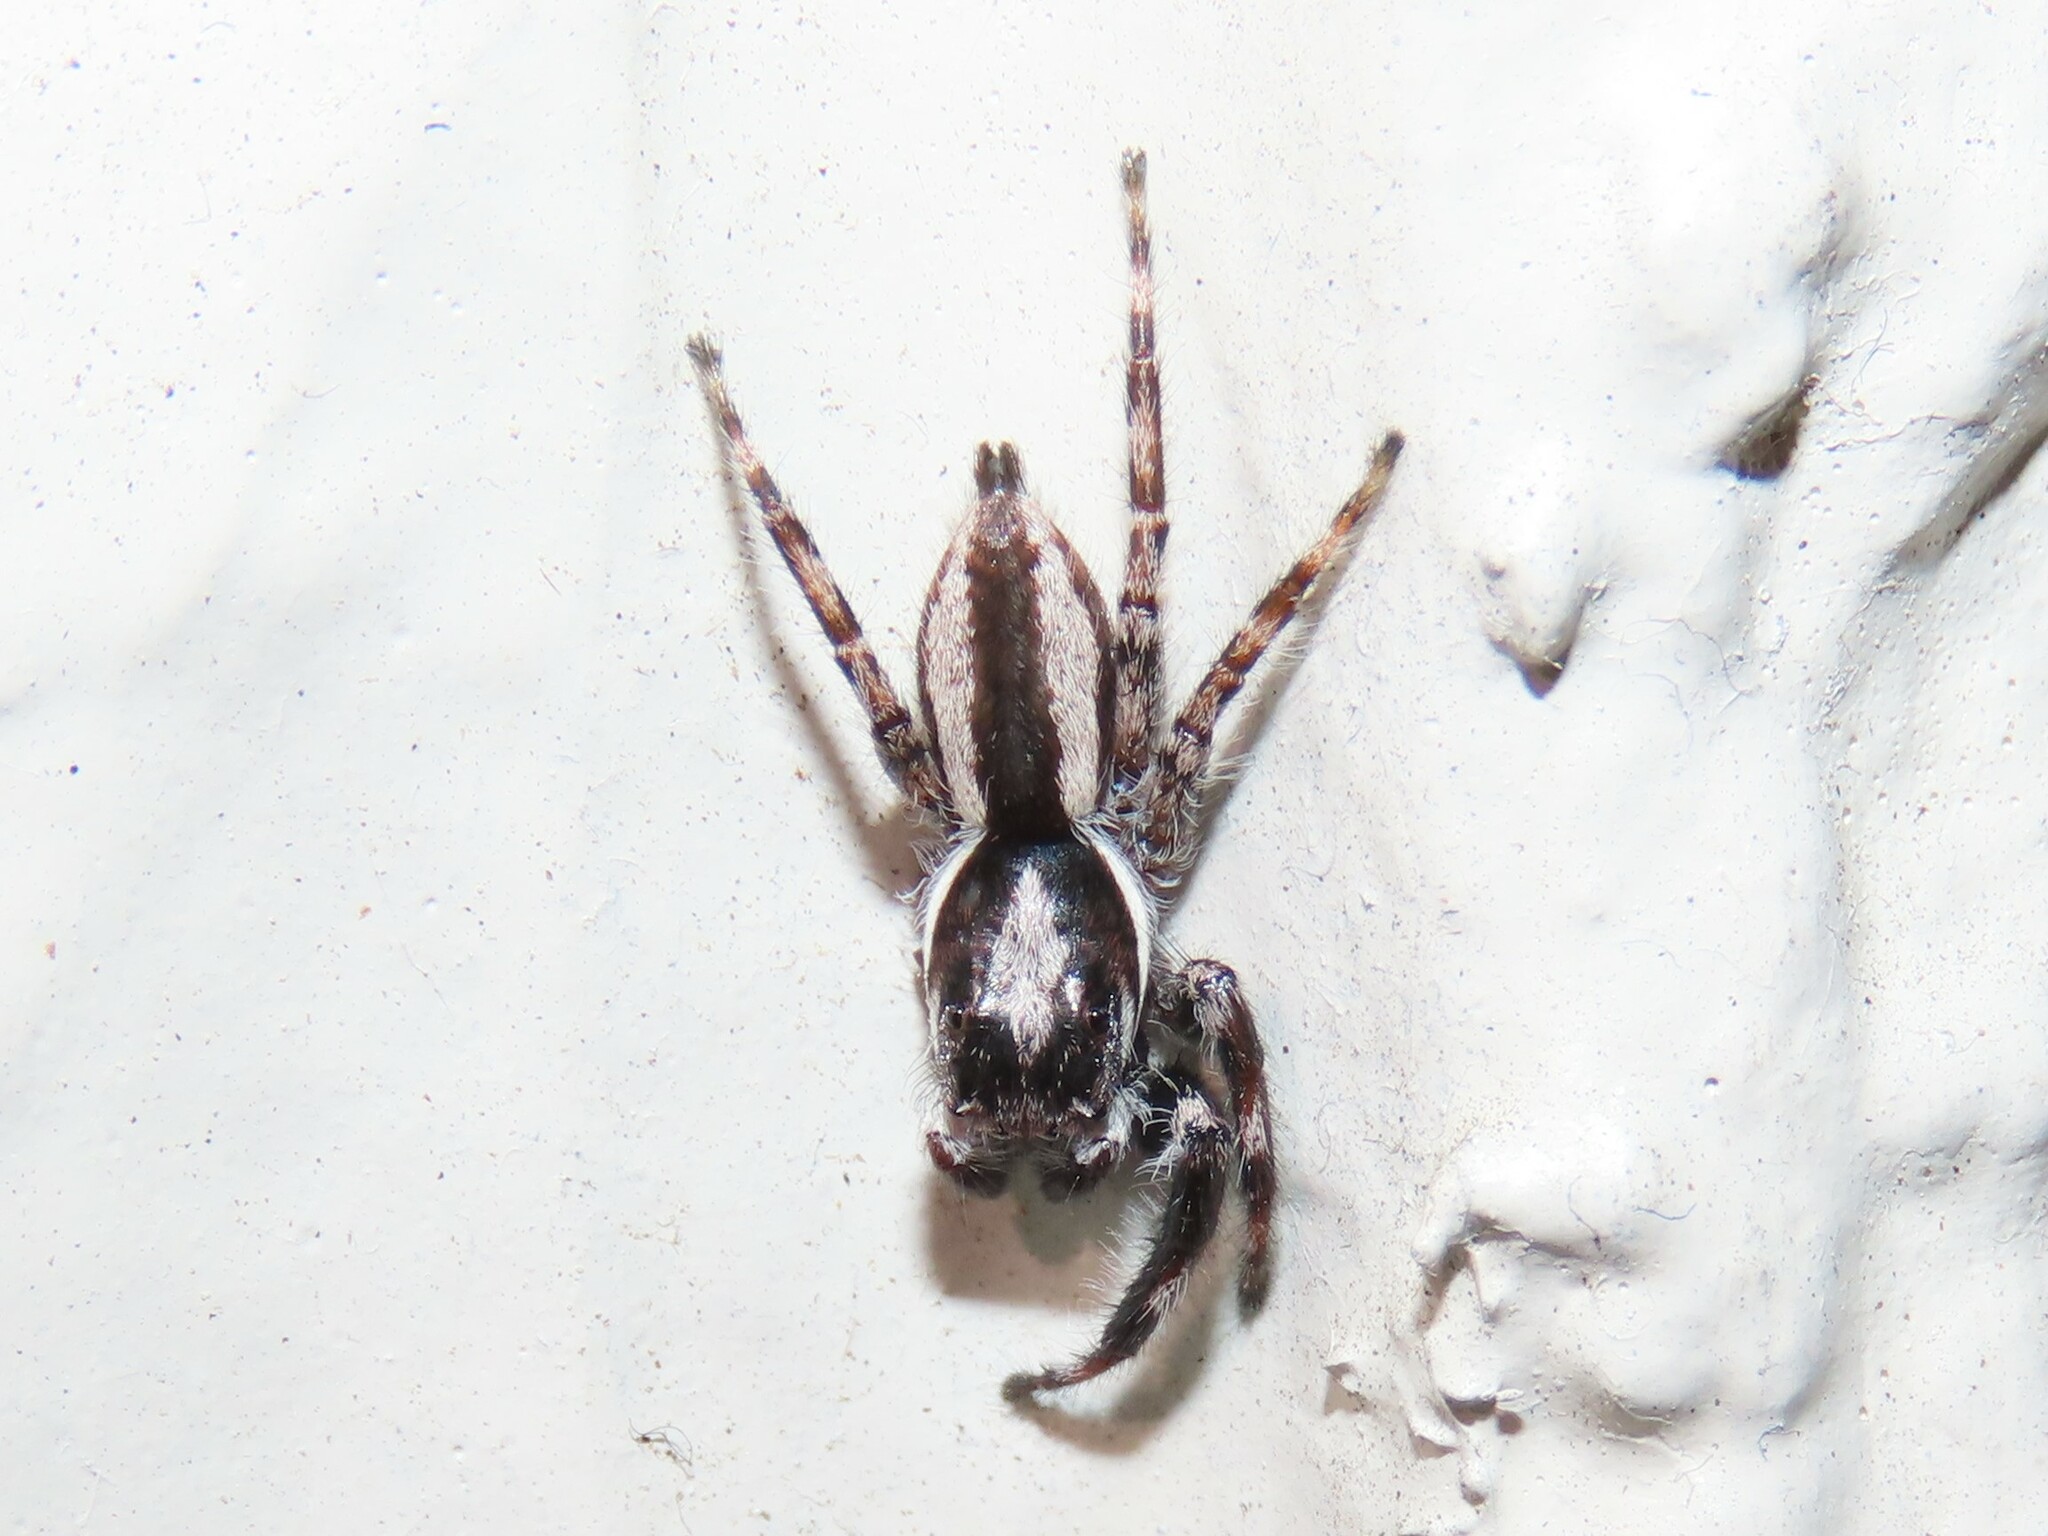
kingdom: Animalia
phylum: Arthropoda
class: Arachnida
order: Araneae
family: Salticidae
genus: Menemerus
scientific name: Menemerus bivittatus
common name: Gray wall jumper
